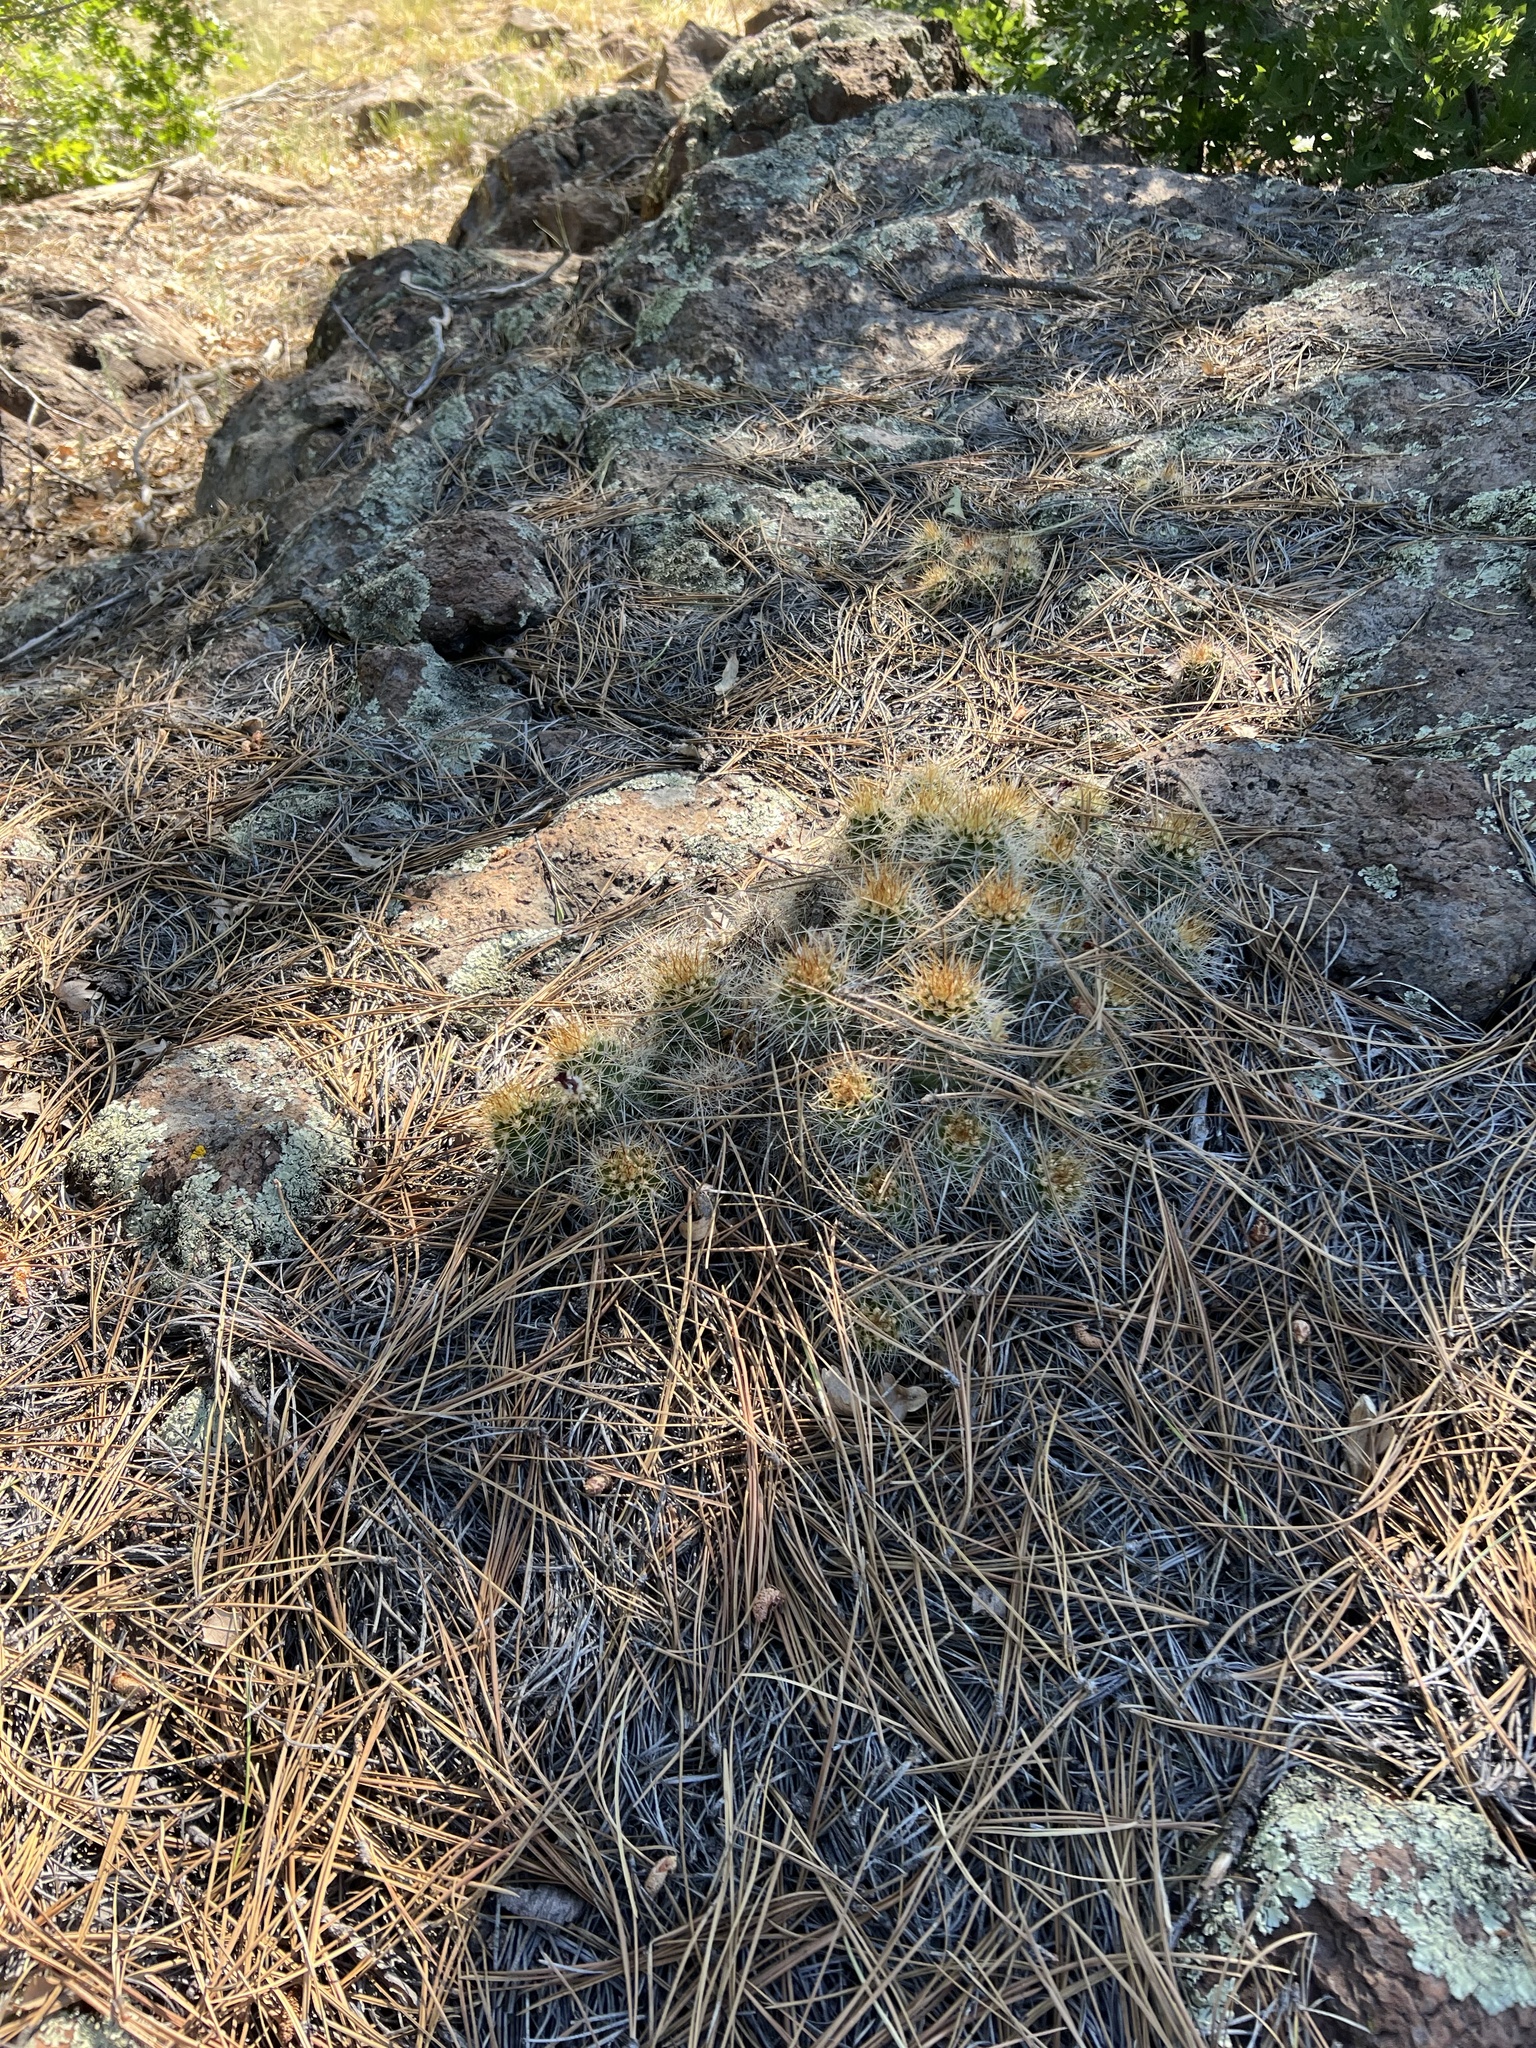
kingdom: Plantae
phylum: Tracheophyta
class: Magnoliopsida
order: Caryophyllales
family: Cactaceae
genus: Echinocereus
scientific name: Echinocereus bakeri
